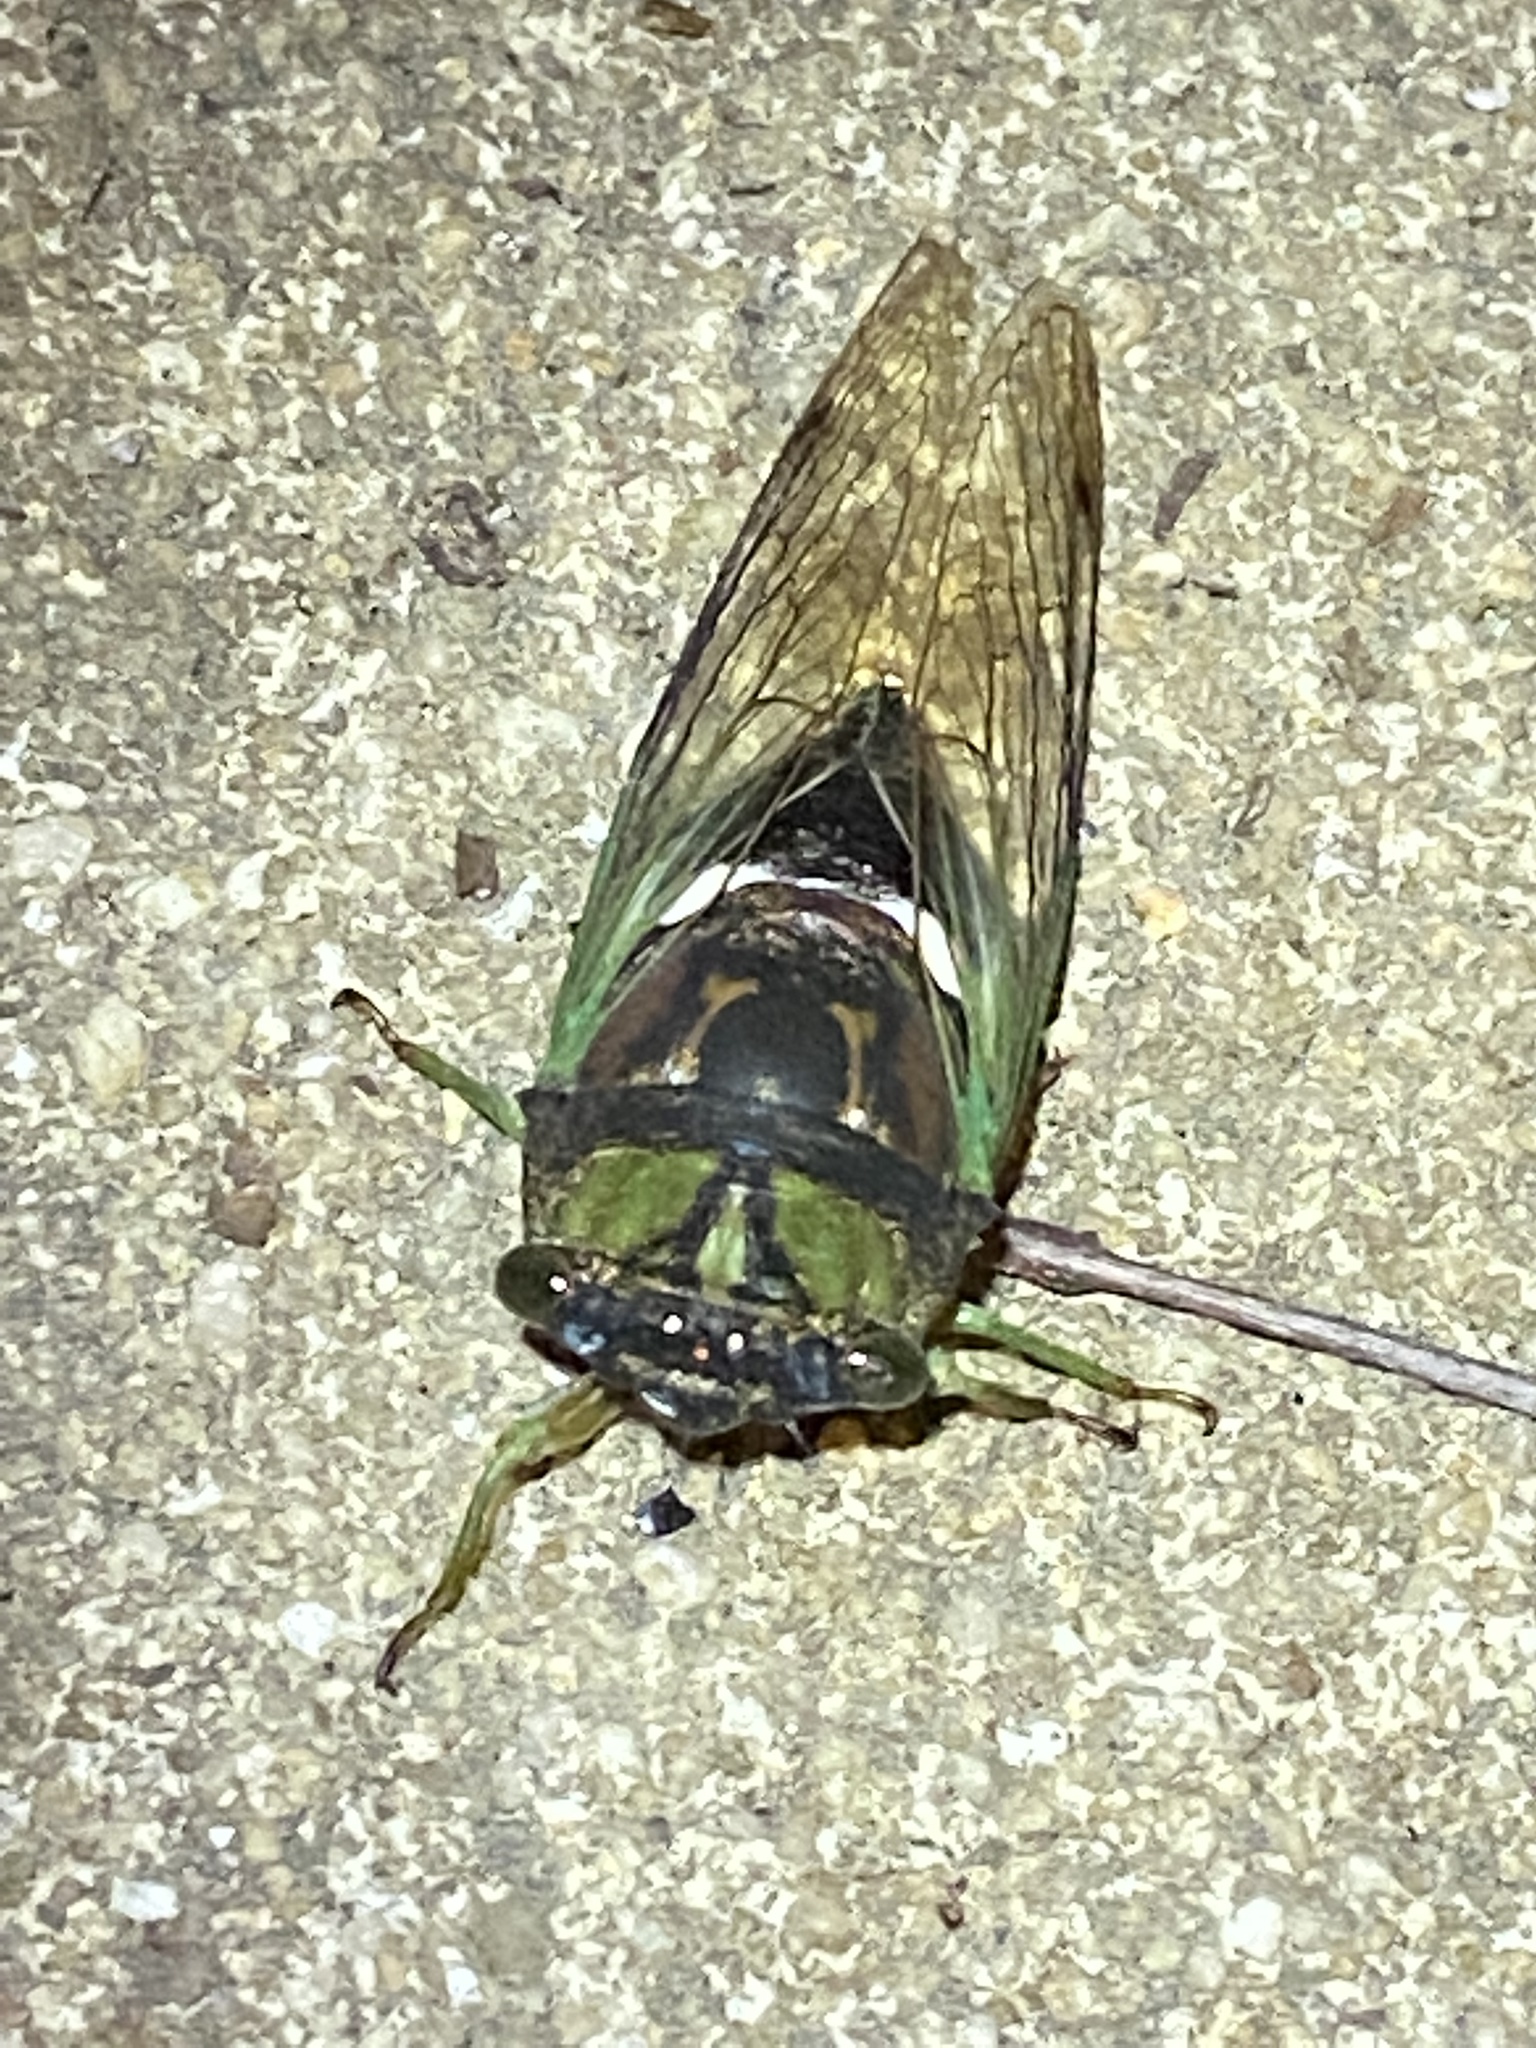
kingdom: Animalia
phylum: Arthropoda
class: Insecta
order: Hemiptera
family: Cicadidae
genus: Neotibicen
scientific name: Neotibicen tibicen
